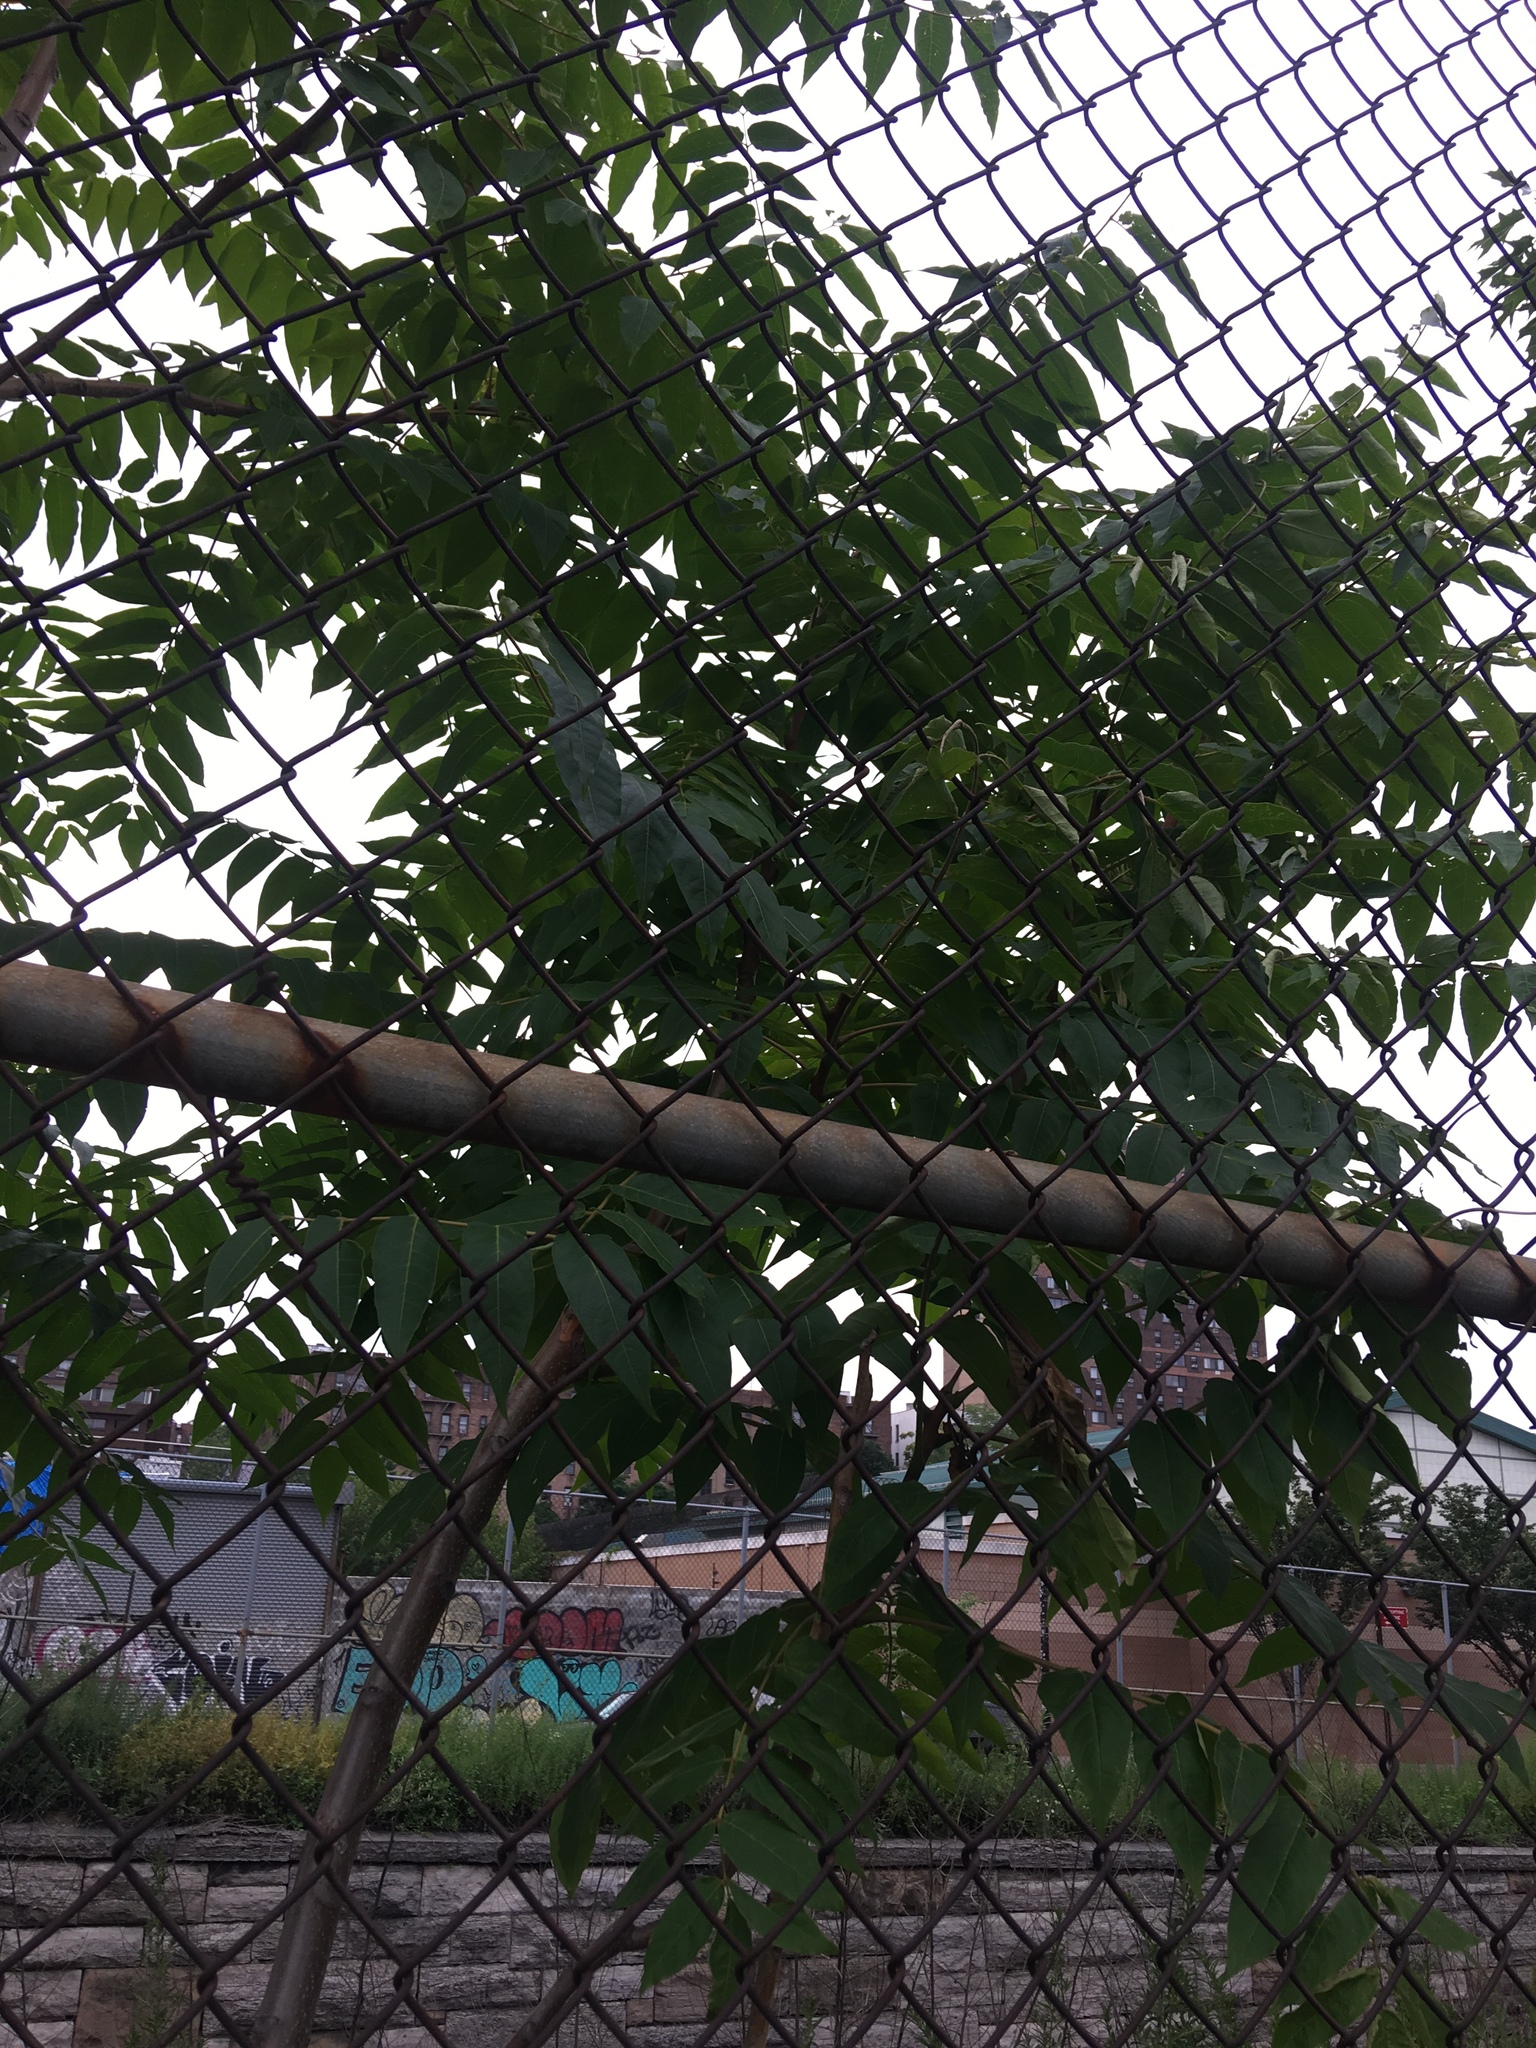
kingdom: Plantae
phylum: Tracheophyta
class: Magnoliopsida
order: Sapindales
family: Simaroubaceae
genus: Ailanthus
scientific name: Ailanthus altissima
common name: Tree-of-heaven
